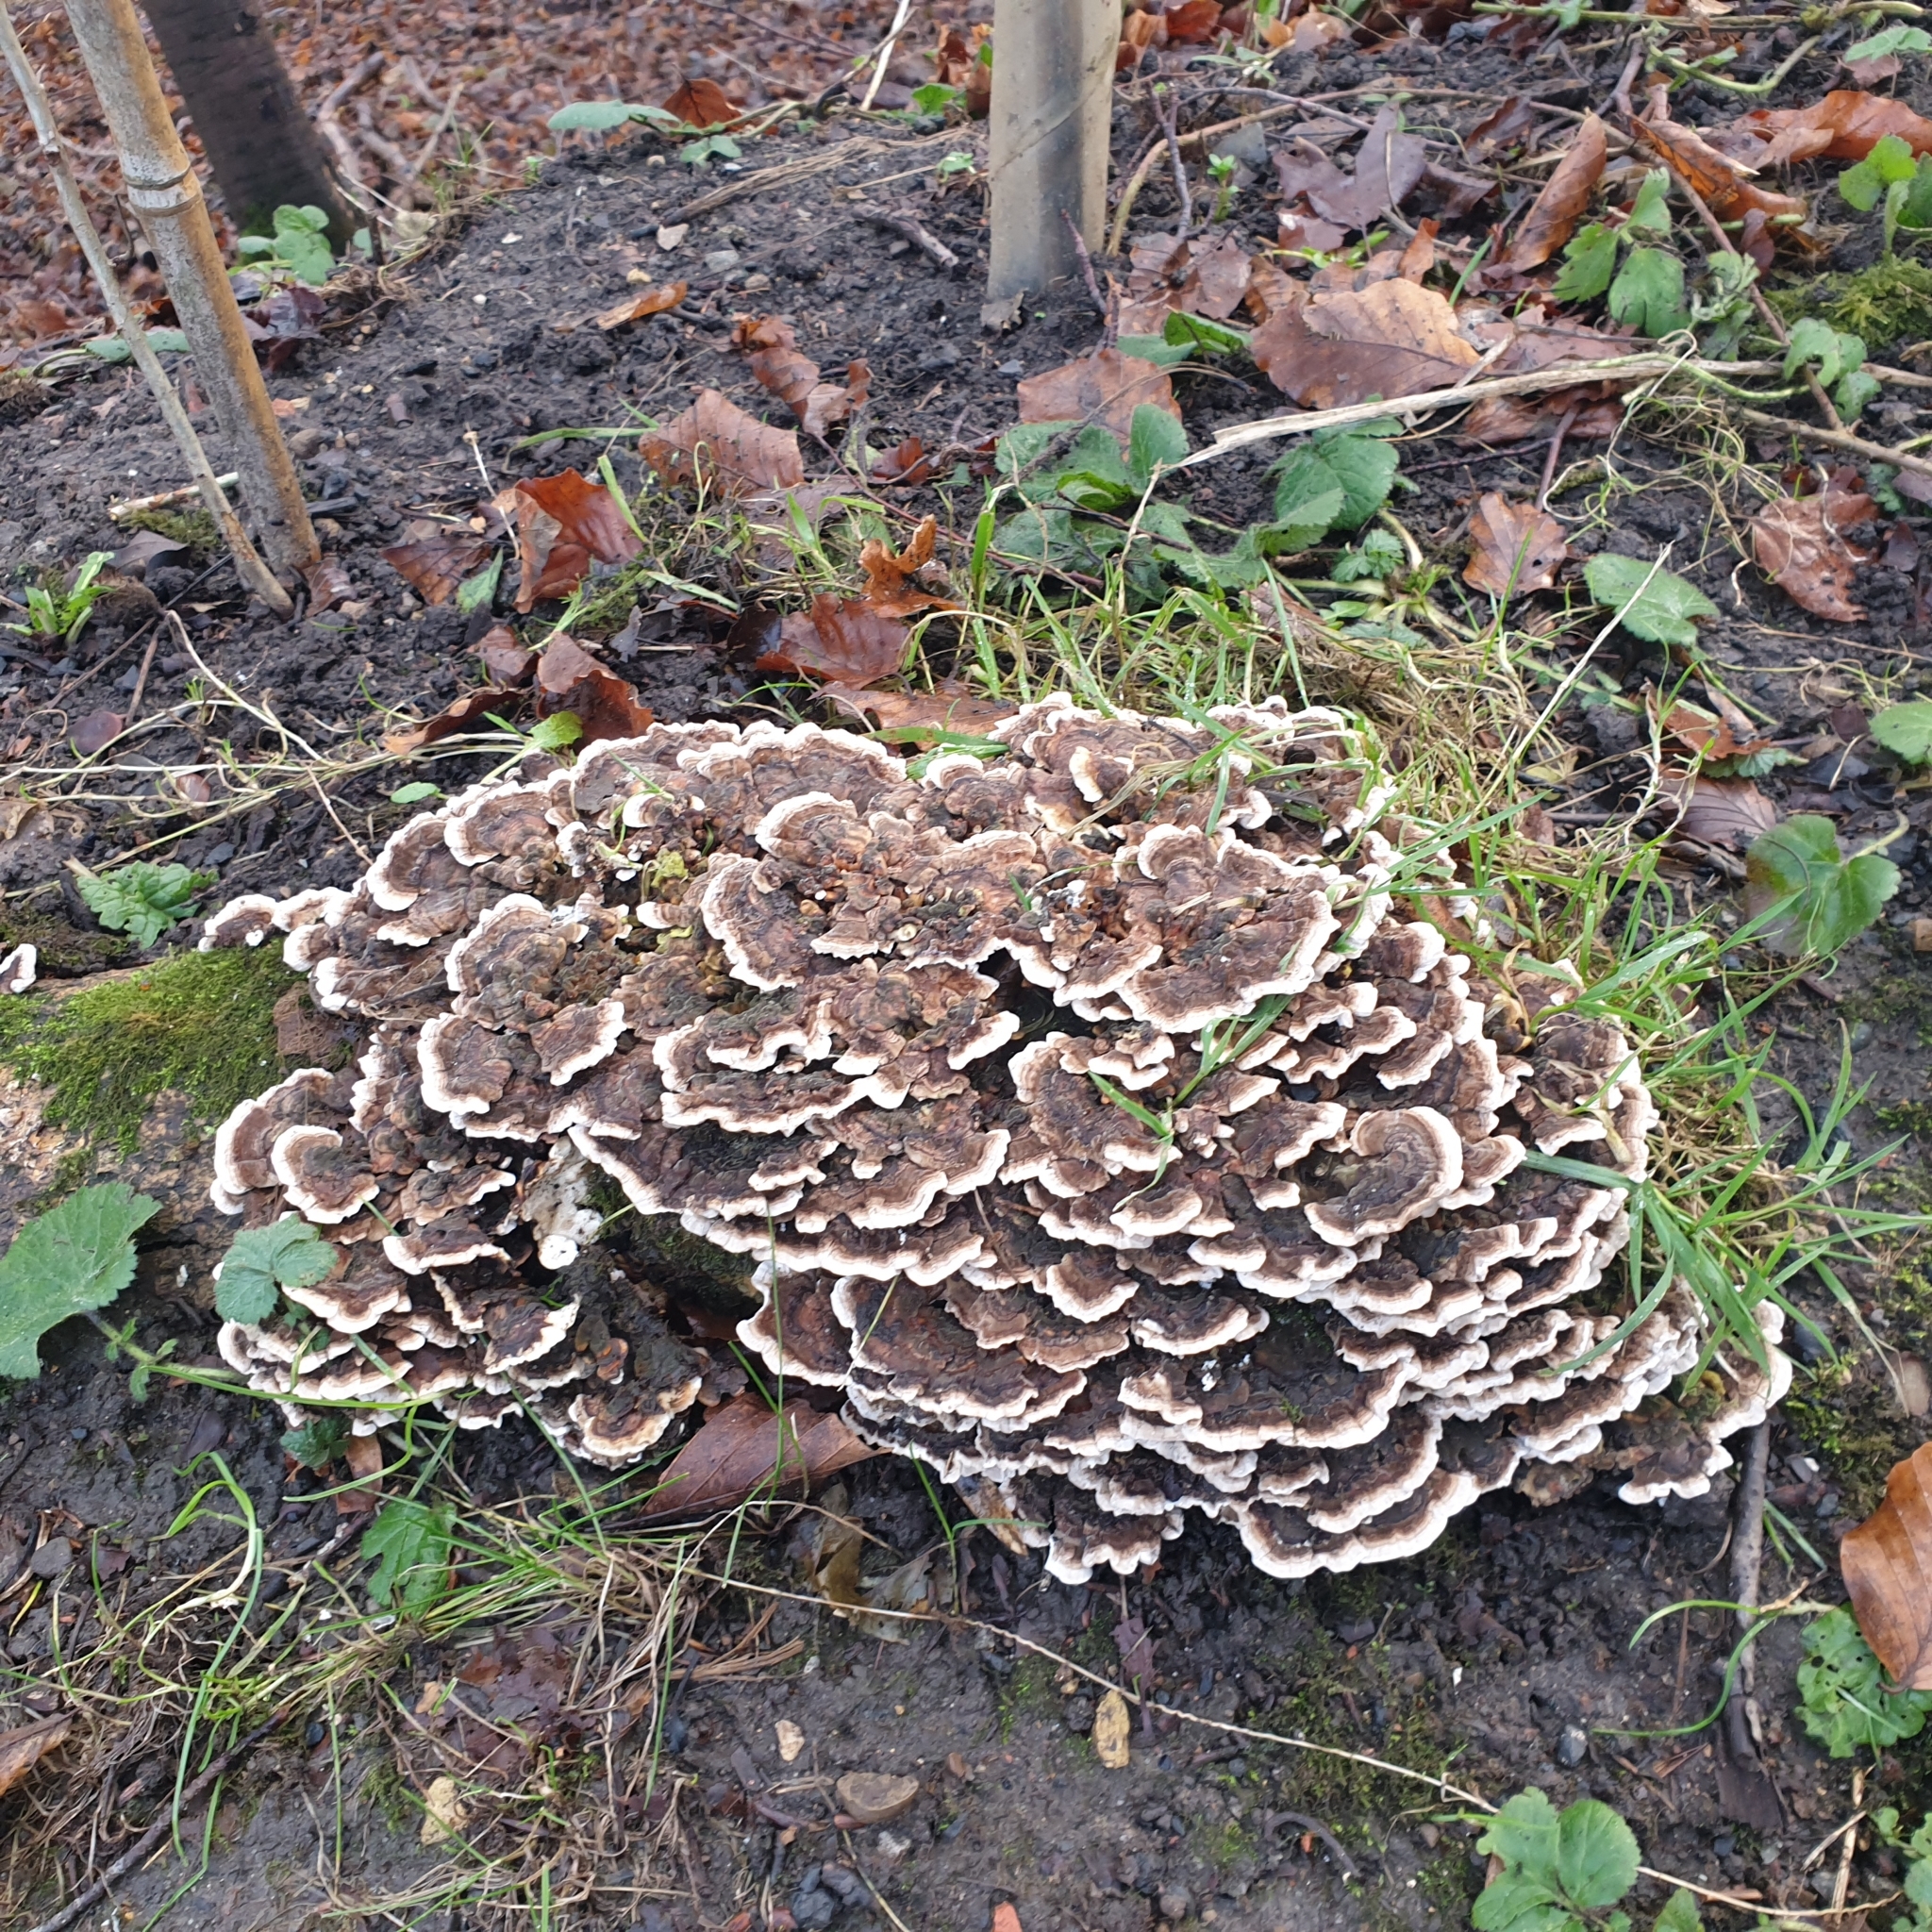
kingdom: Fungi
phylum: Basidiomycota
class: Agaricomycetes
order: Polyporales
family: Polyporaceae
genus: Trametes
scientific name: Trametes versicolor
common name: Turkeytail
